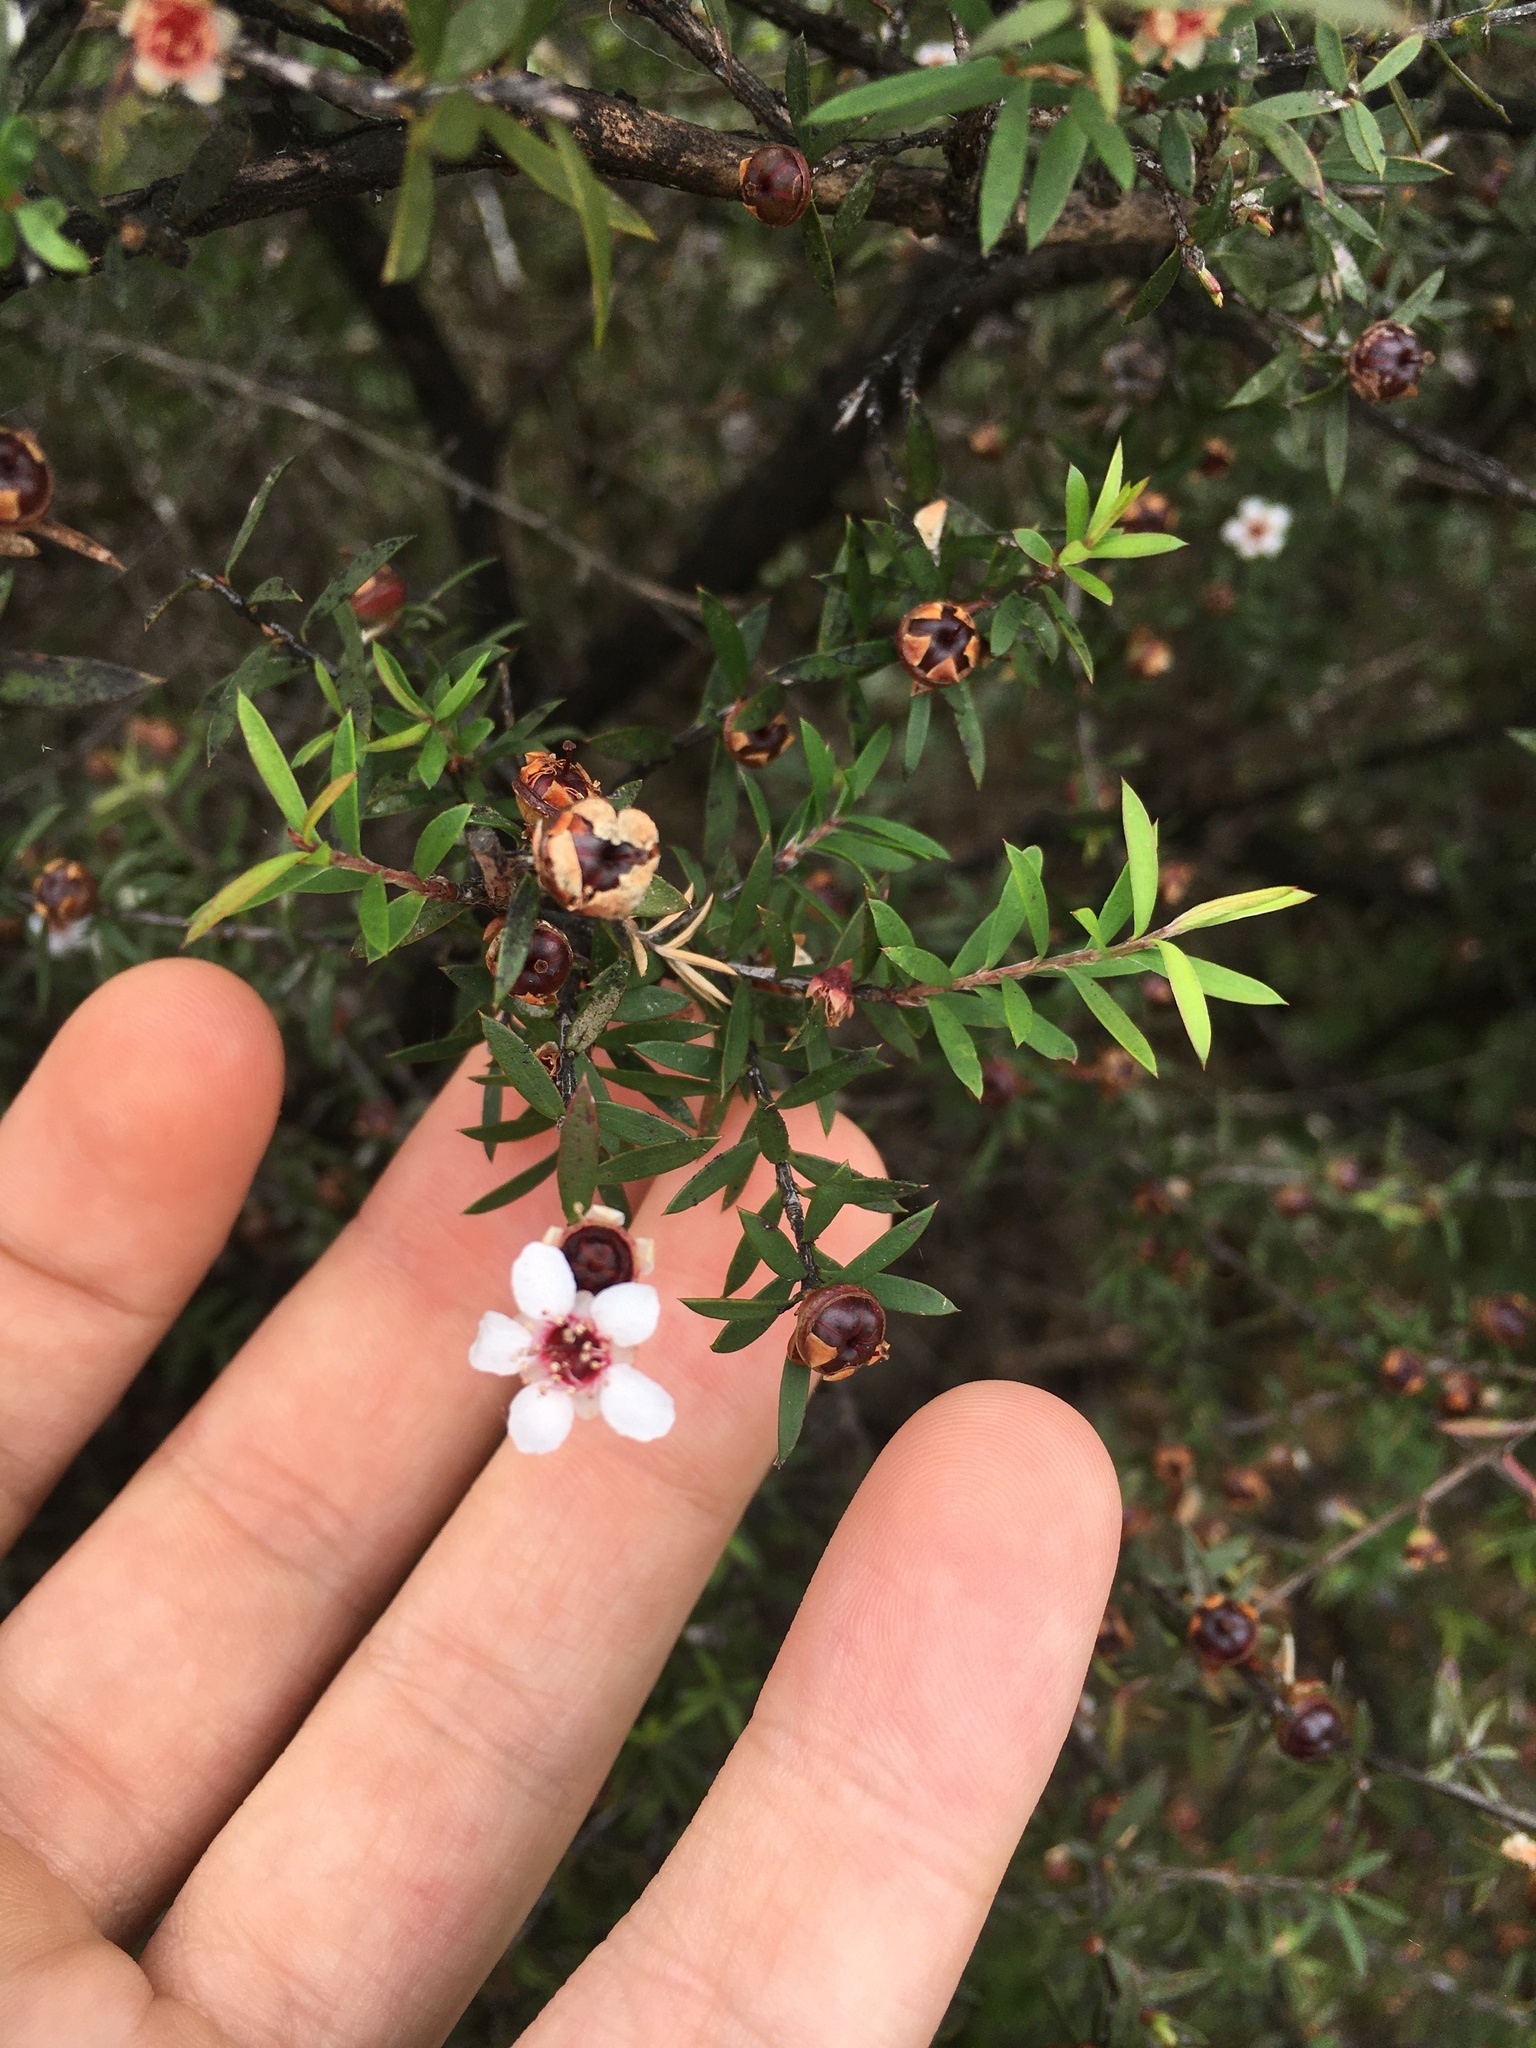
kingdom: Plantae
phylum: Tracheophyta
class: Magnoliopsida
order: Myrtales
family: Myrtaceae
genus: Leptospermum
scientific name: Leptospermum scoparium
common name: Broom tea-tree
